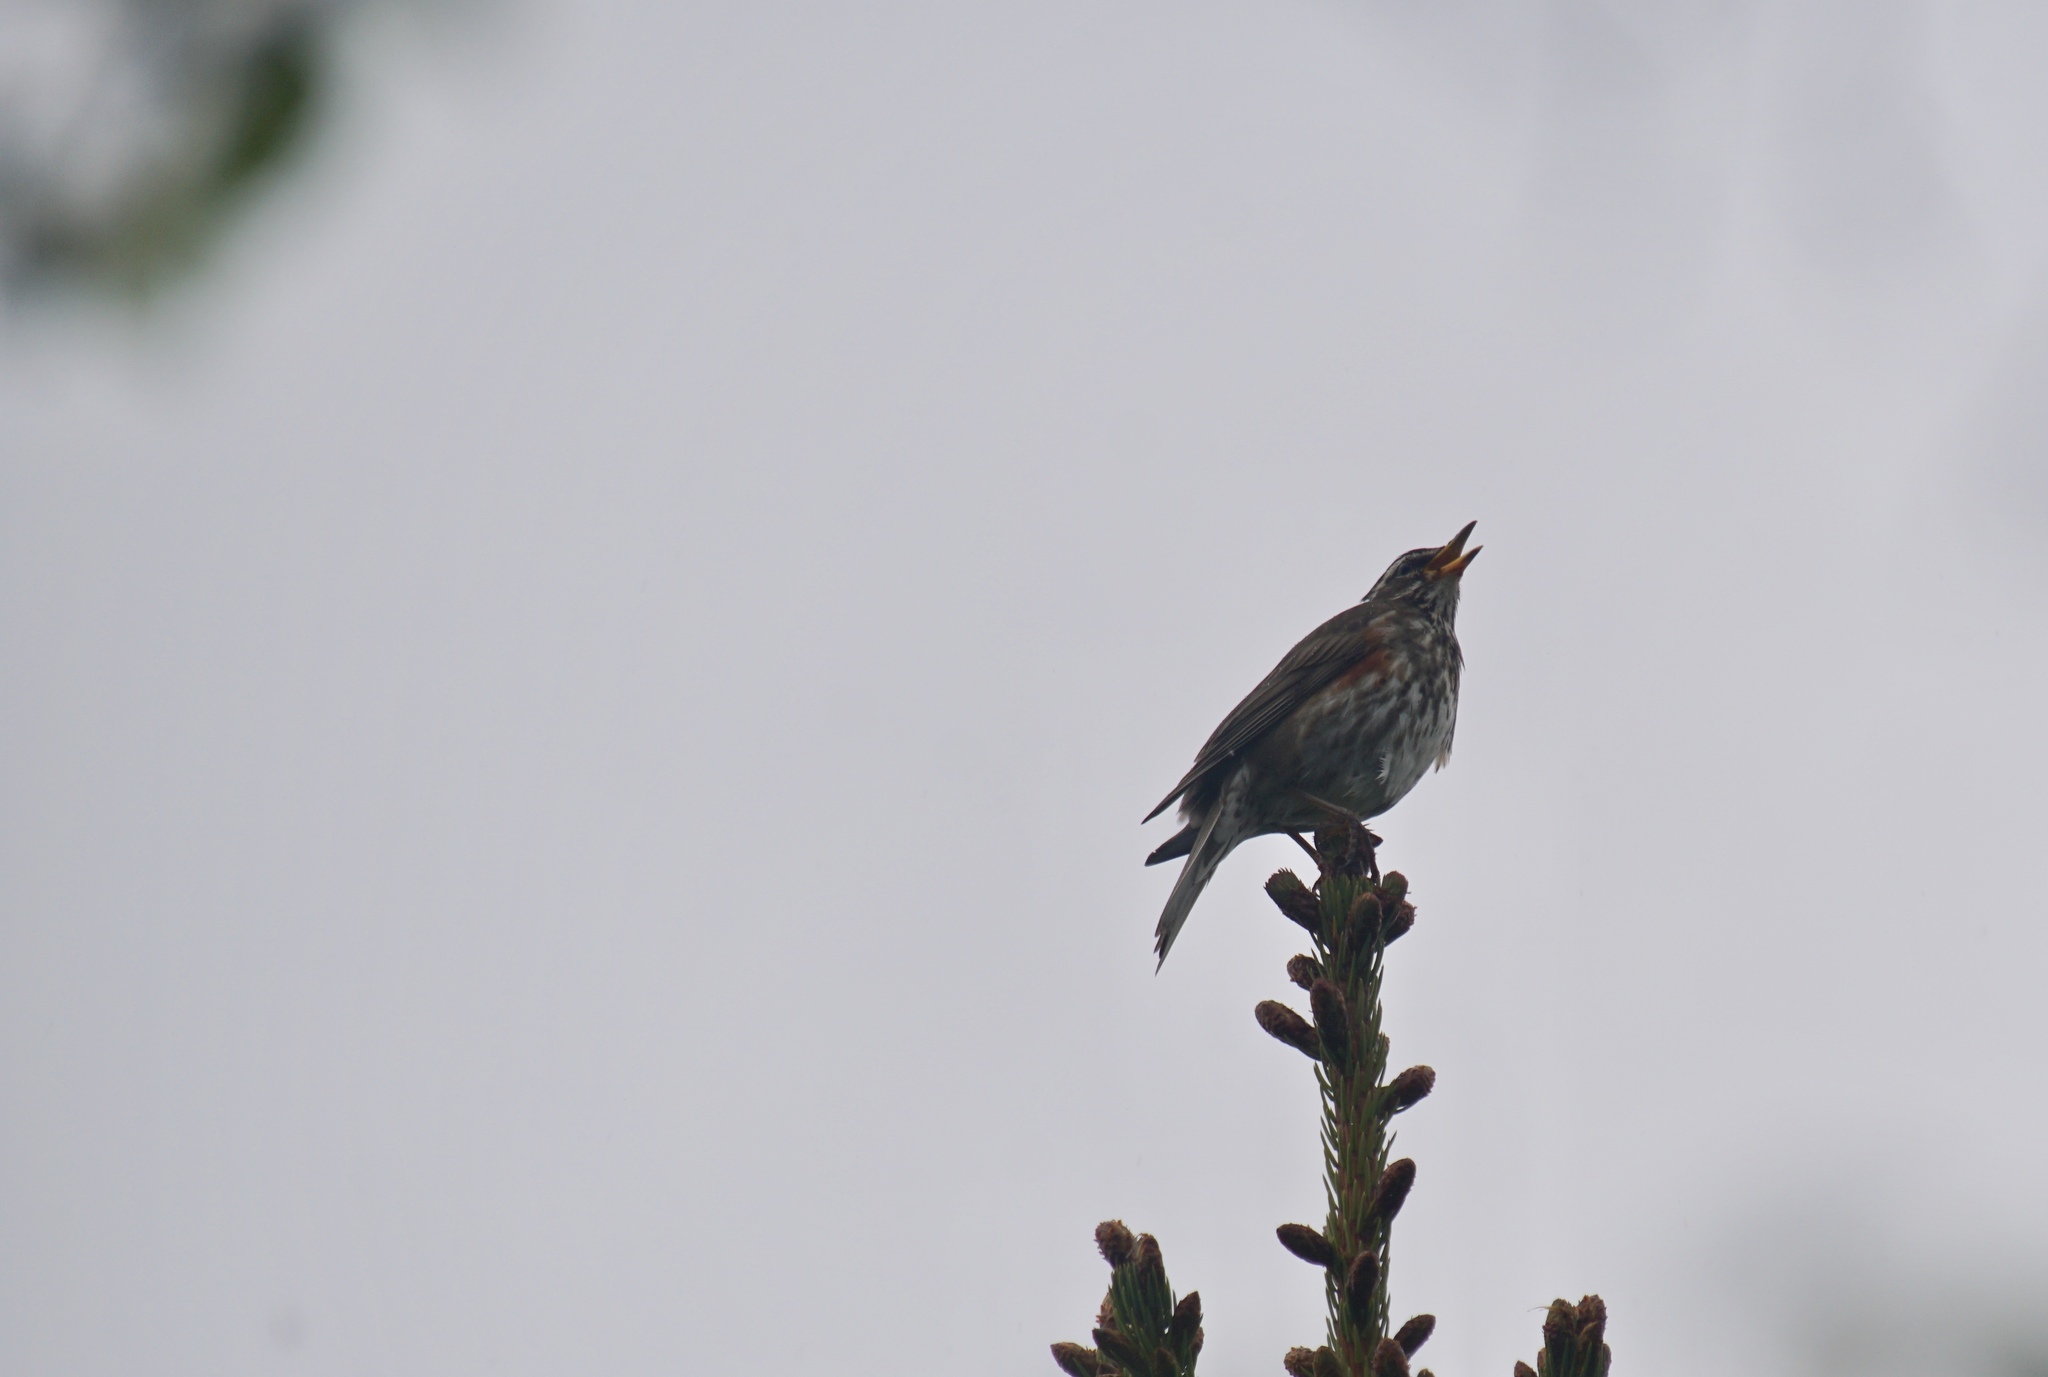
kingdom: Animalia
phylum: Chordata
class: Aves
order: Passeriformes
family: Turdidae
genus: Turdus
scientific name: Turdus iliacus
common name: Redwing
